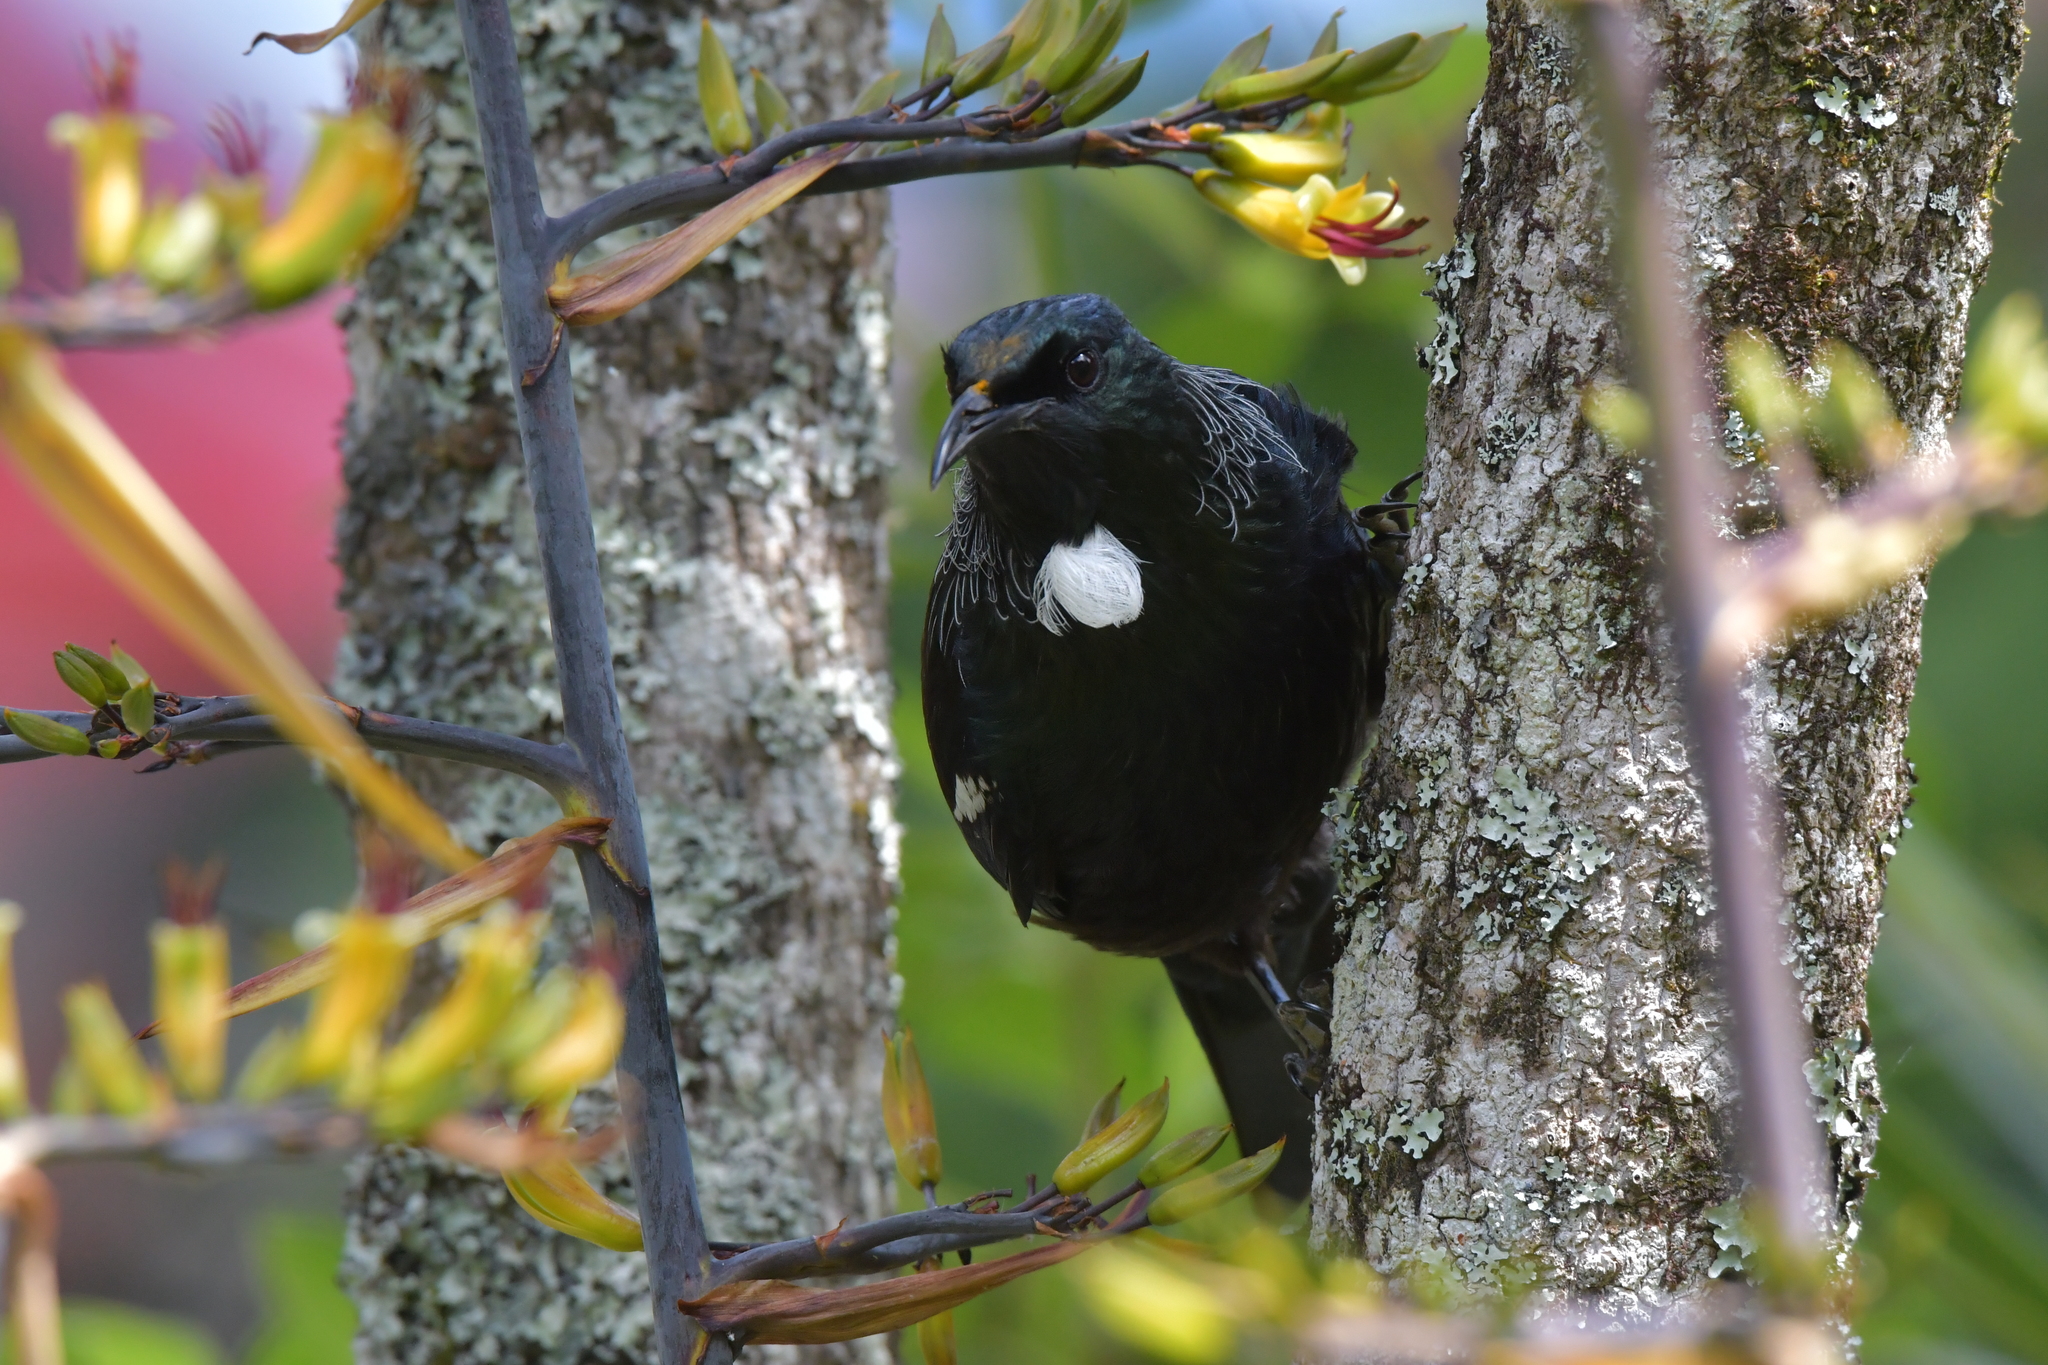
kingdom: Animalia
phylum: Chordata
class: Aves
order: Passeriformes
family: Meliphagidae
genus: Prosthemadera
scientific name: Prosthemadera novaeseelandiae
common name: Tui
